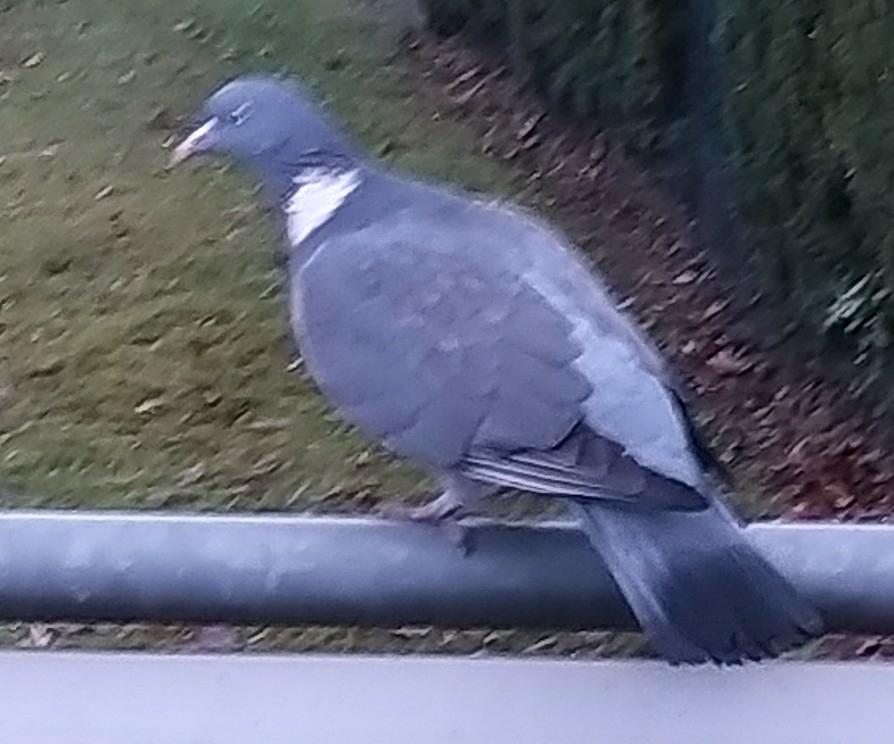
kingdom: Animalia
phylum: Chordata
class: Aves
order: Columbiformes
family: Columbidae
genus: Columba
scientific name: Columba palumbus
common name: Common wood pigeon
